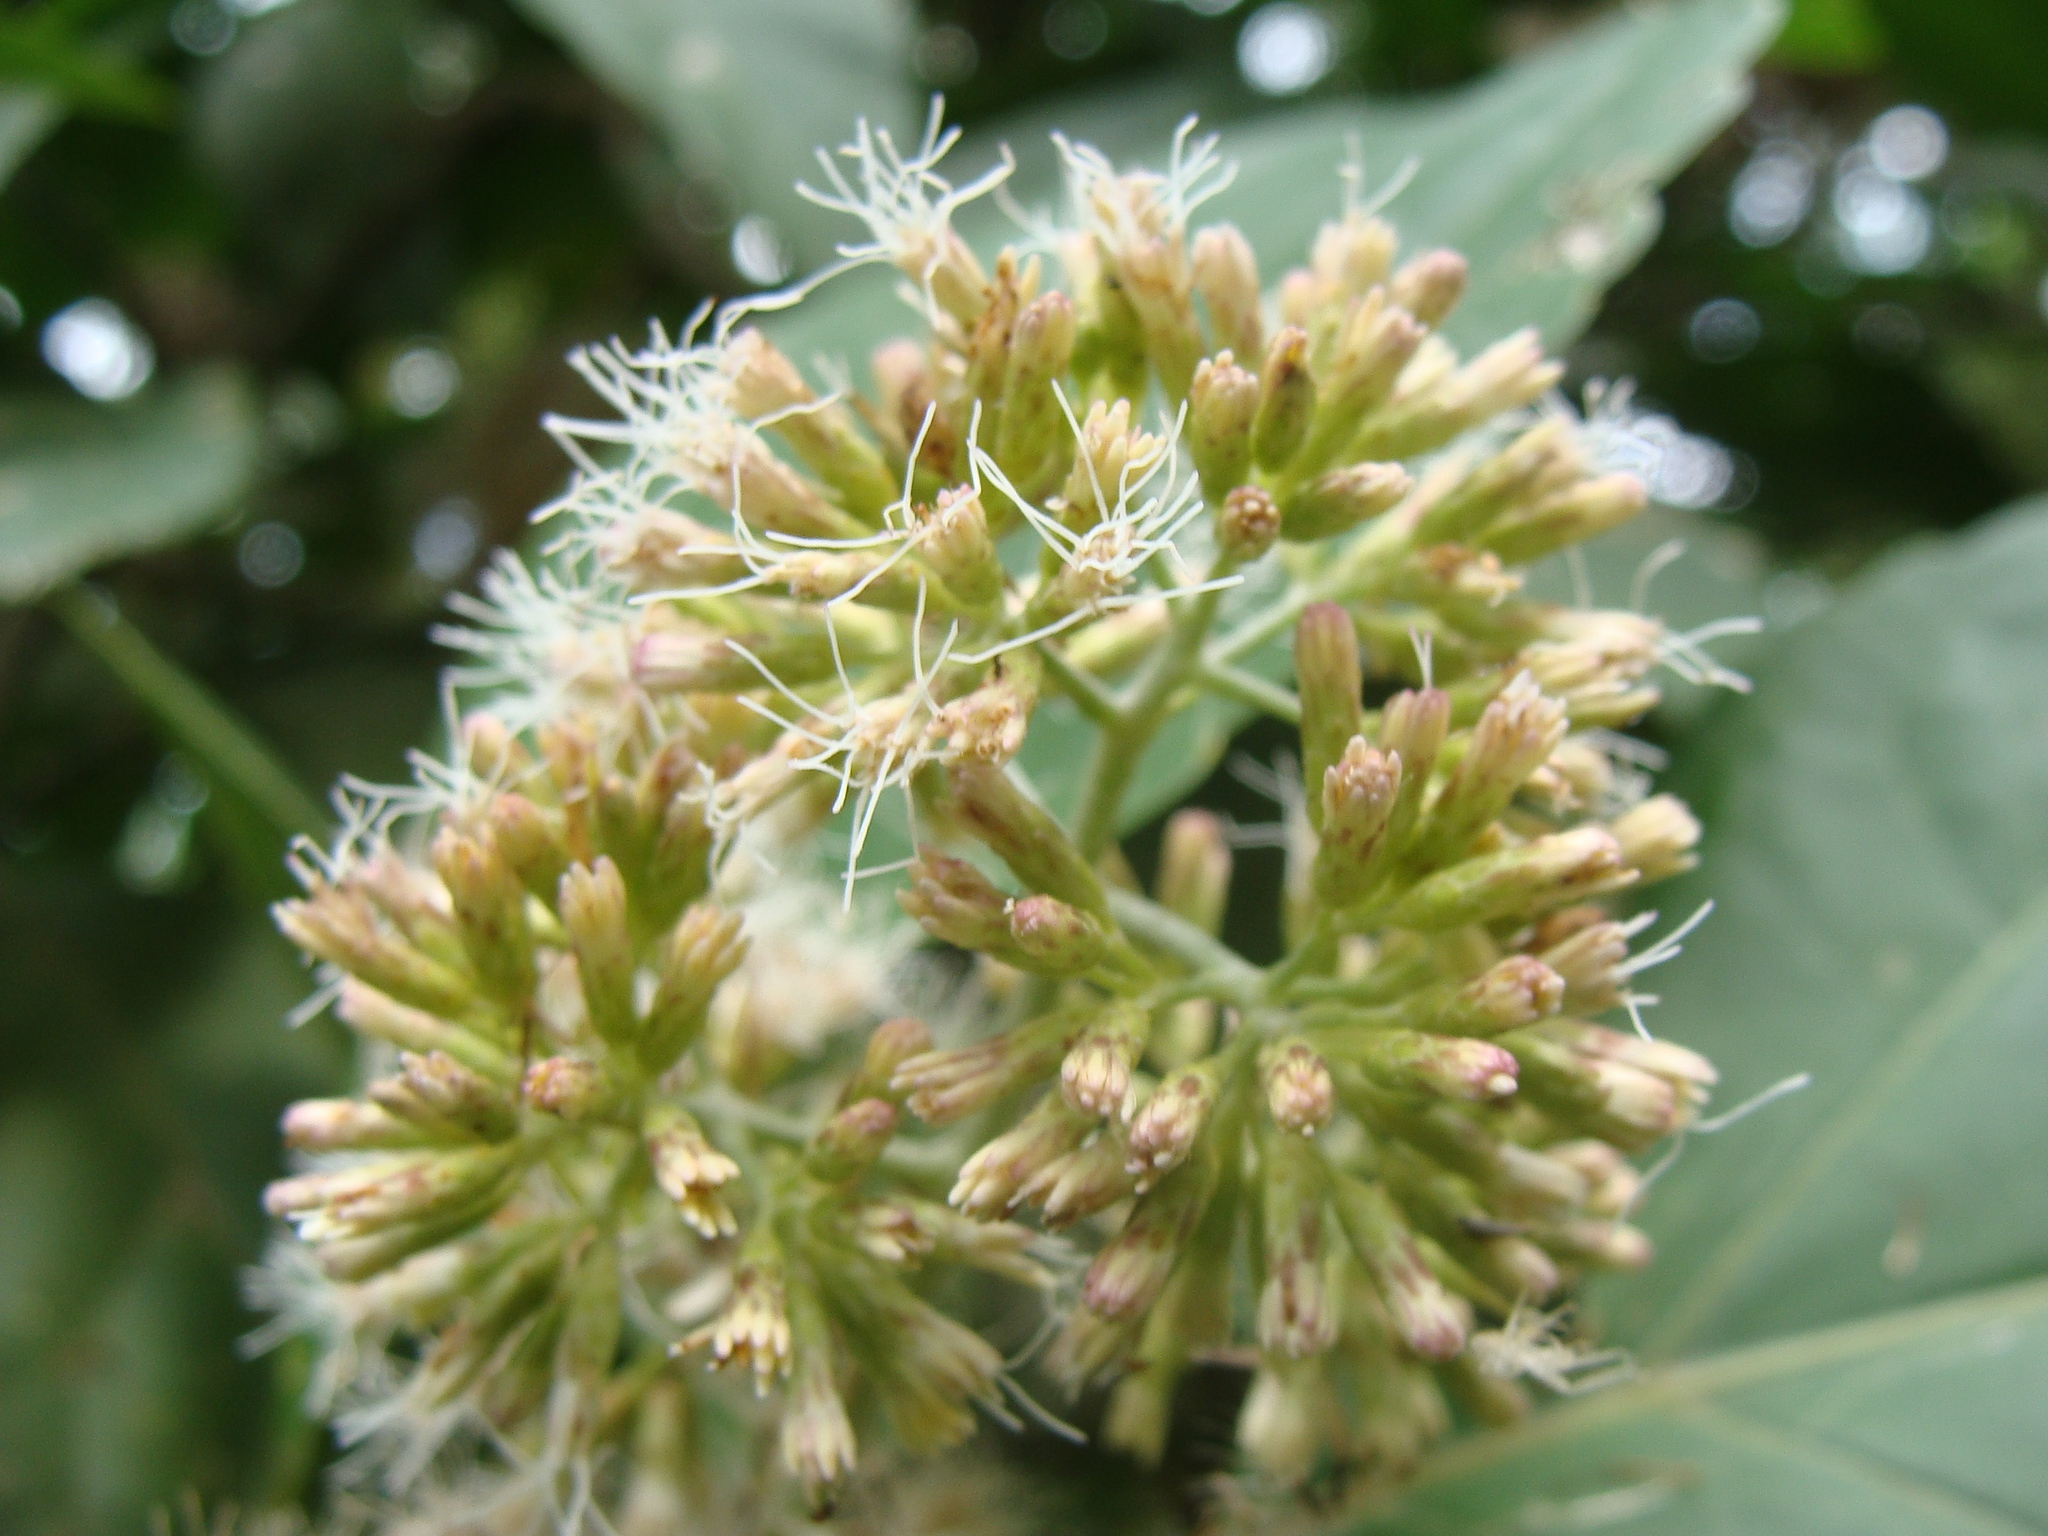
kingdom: Plantae
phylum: Tracheophyta
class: Magnoliopsida
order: Asterales
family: Asteraceae
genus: Critonia
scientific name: Critonia morifolia
